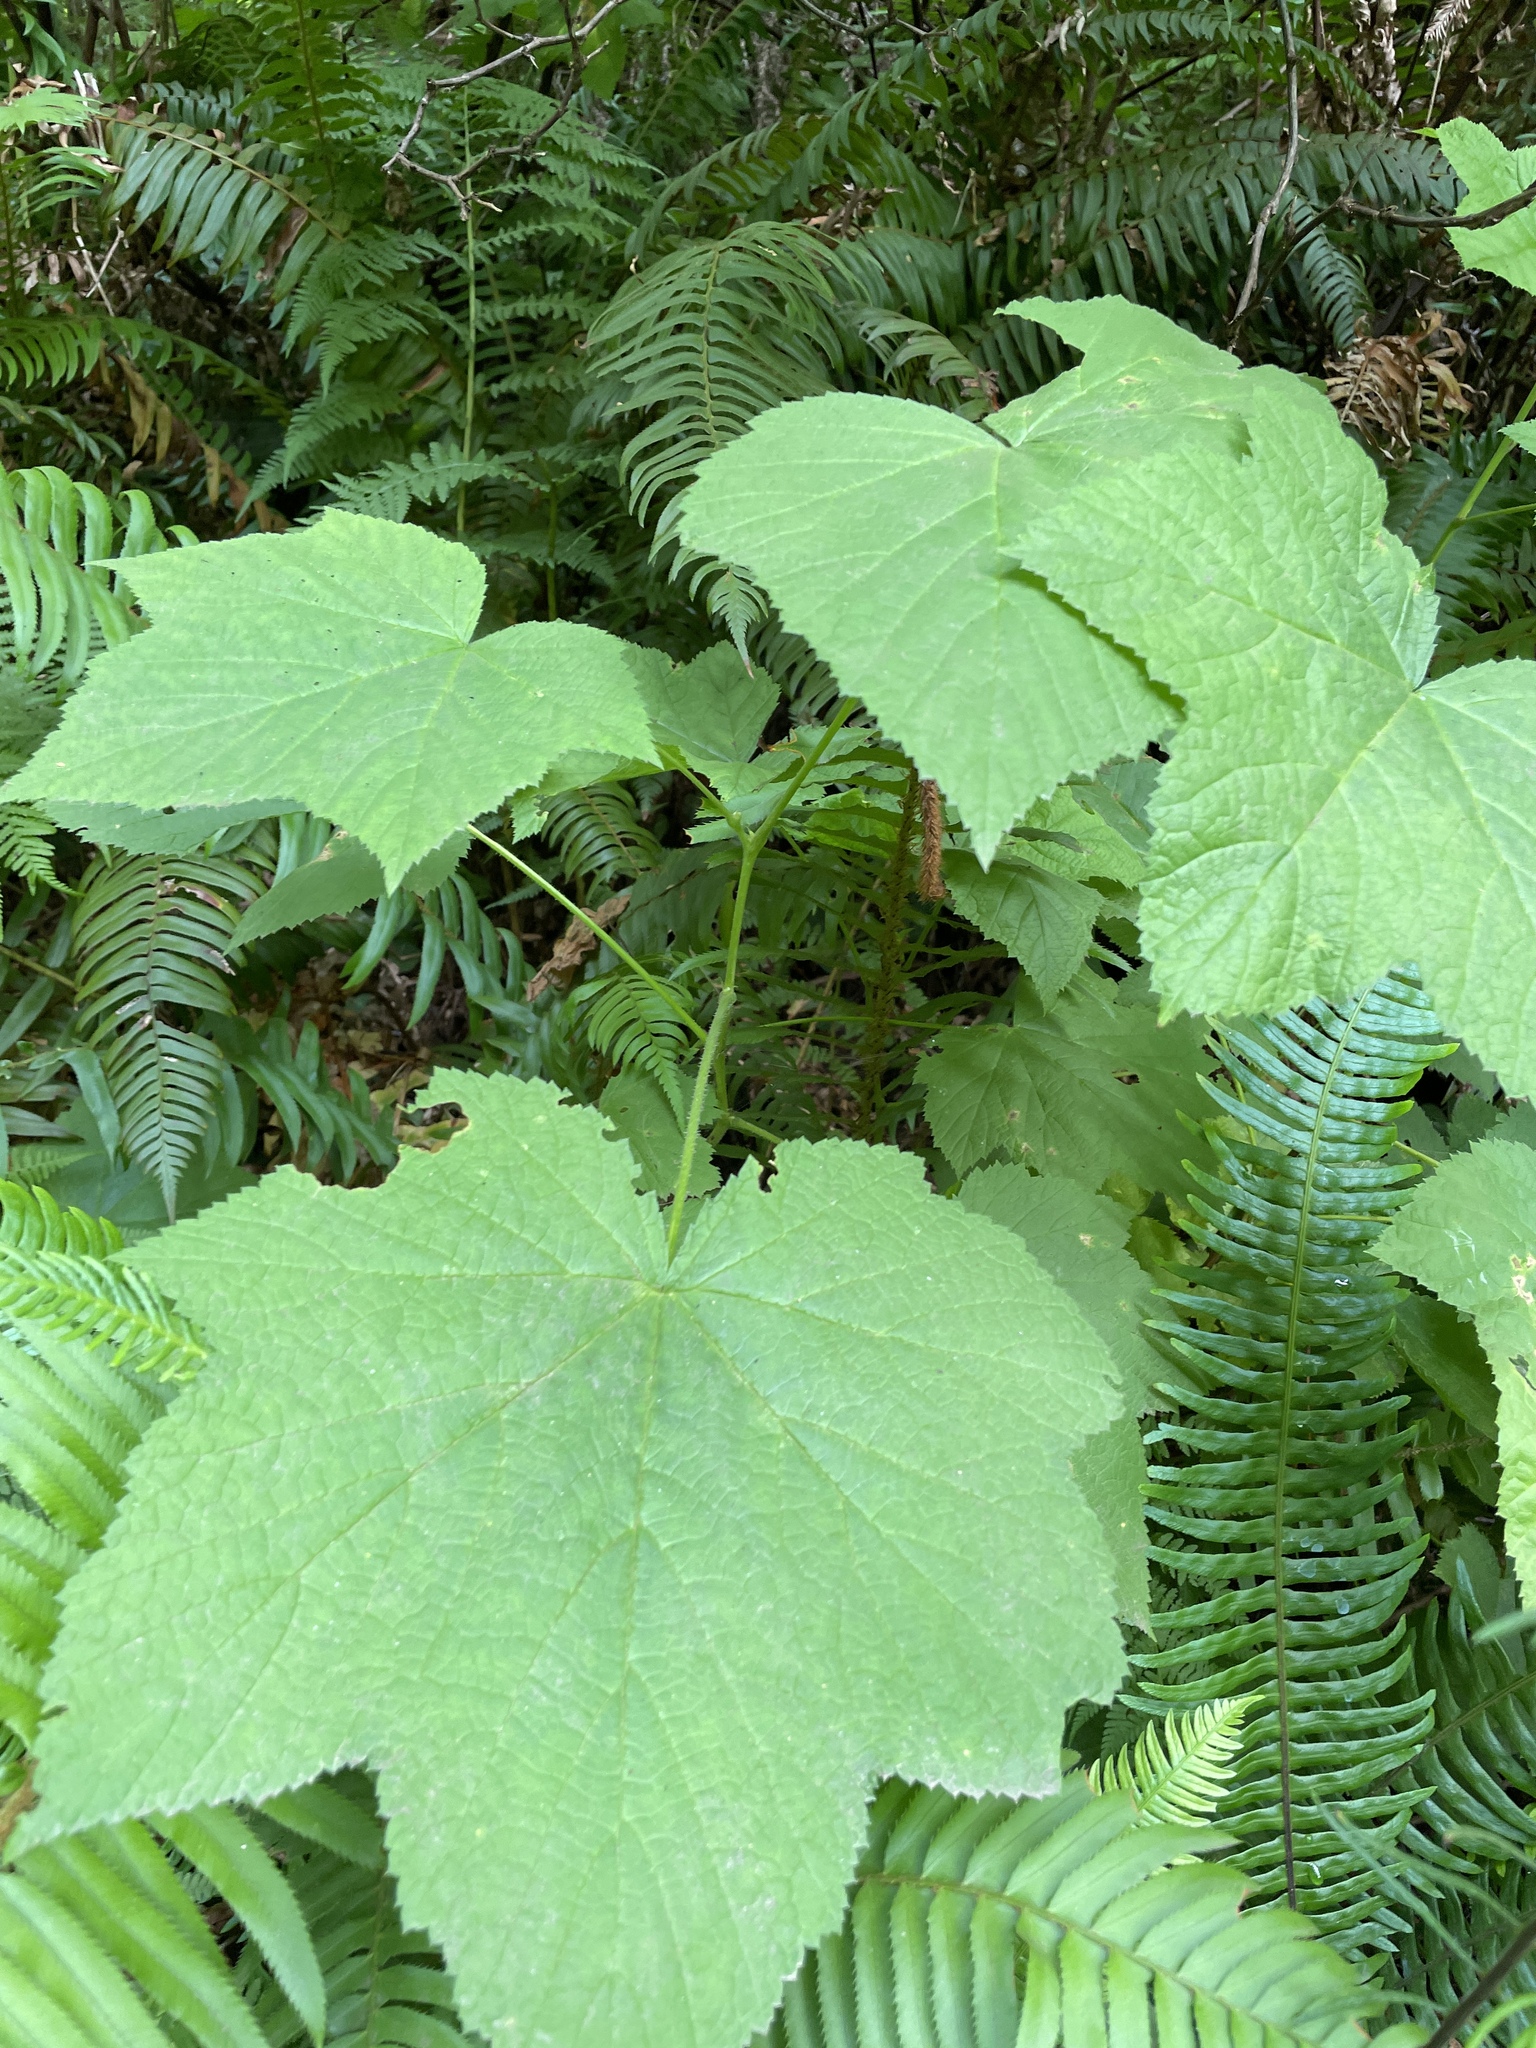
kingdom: Plantae
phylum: Tracheophyta
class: Magnoliopsida
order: Rosales
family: Rosaceae
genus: Rubus
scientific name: Rubus parviflorus
